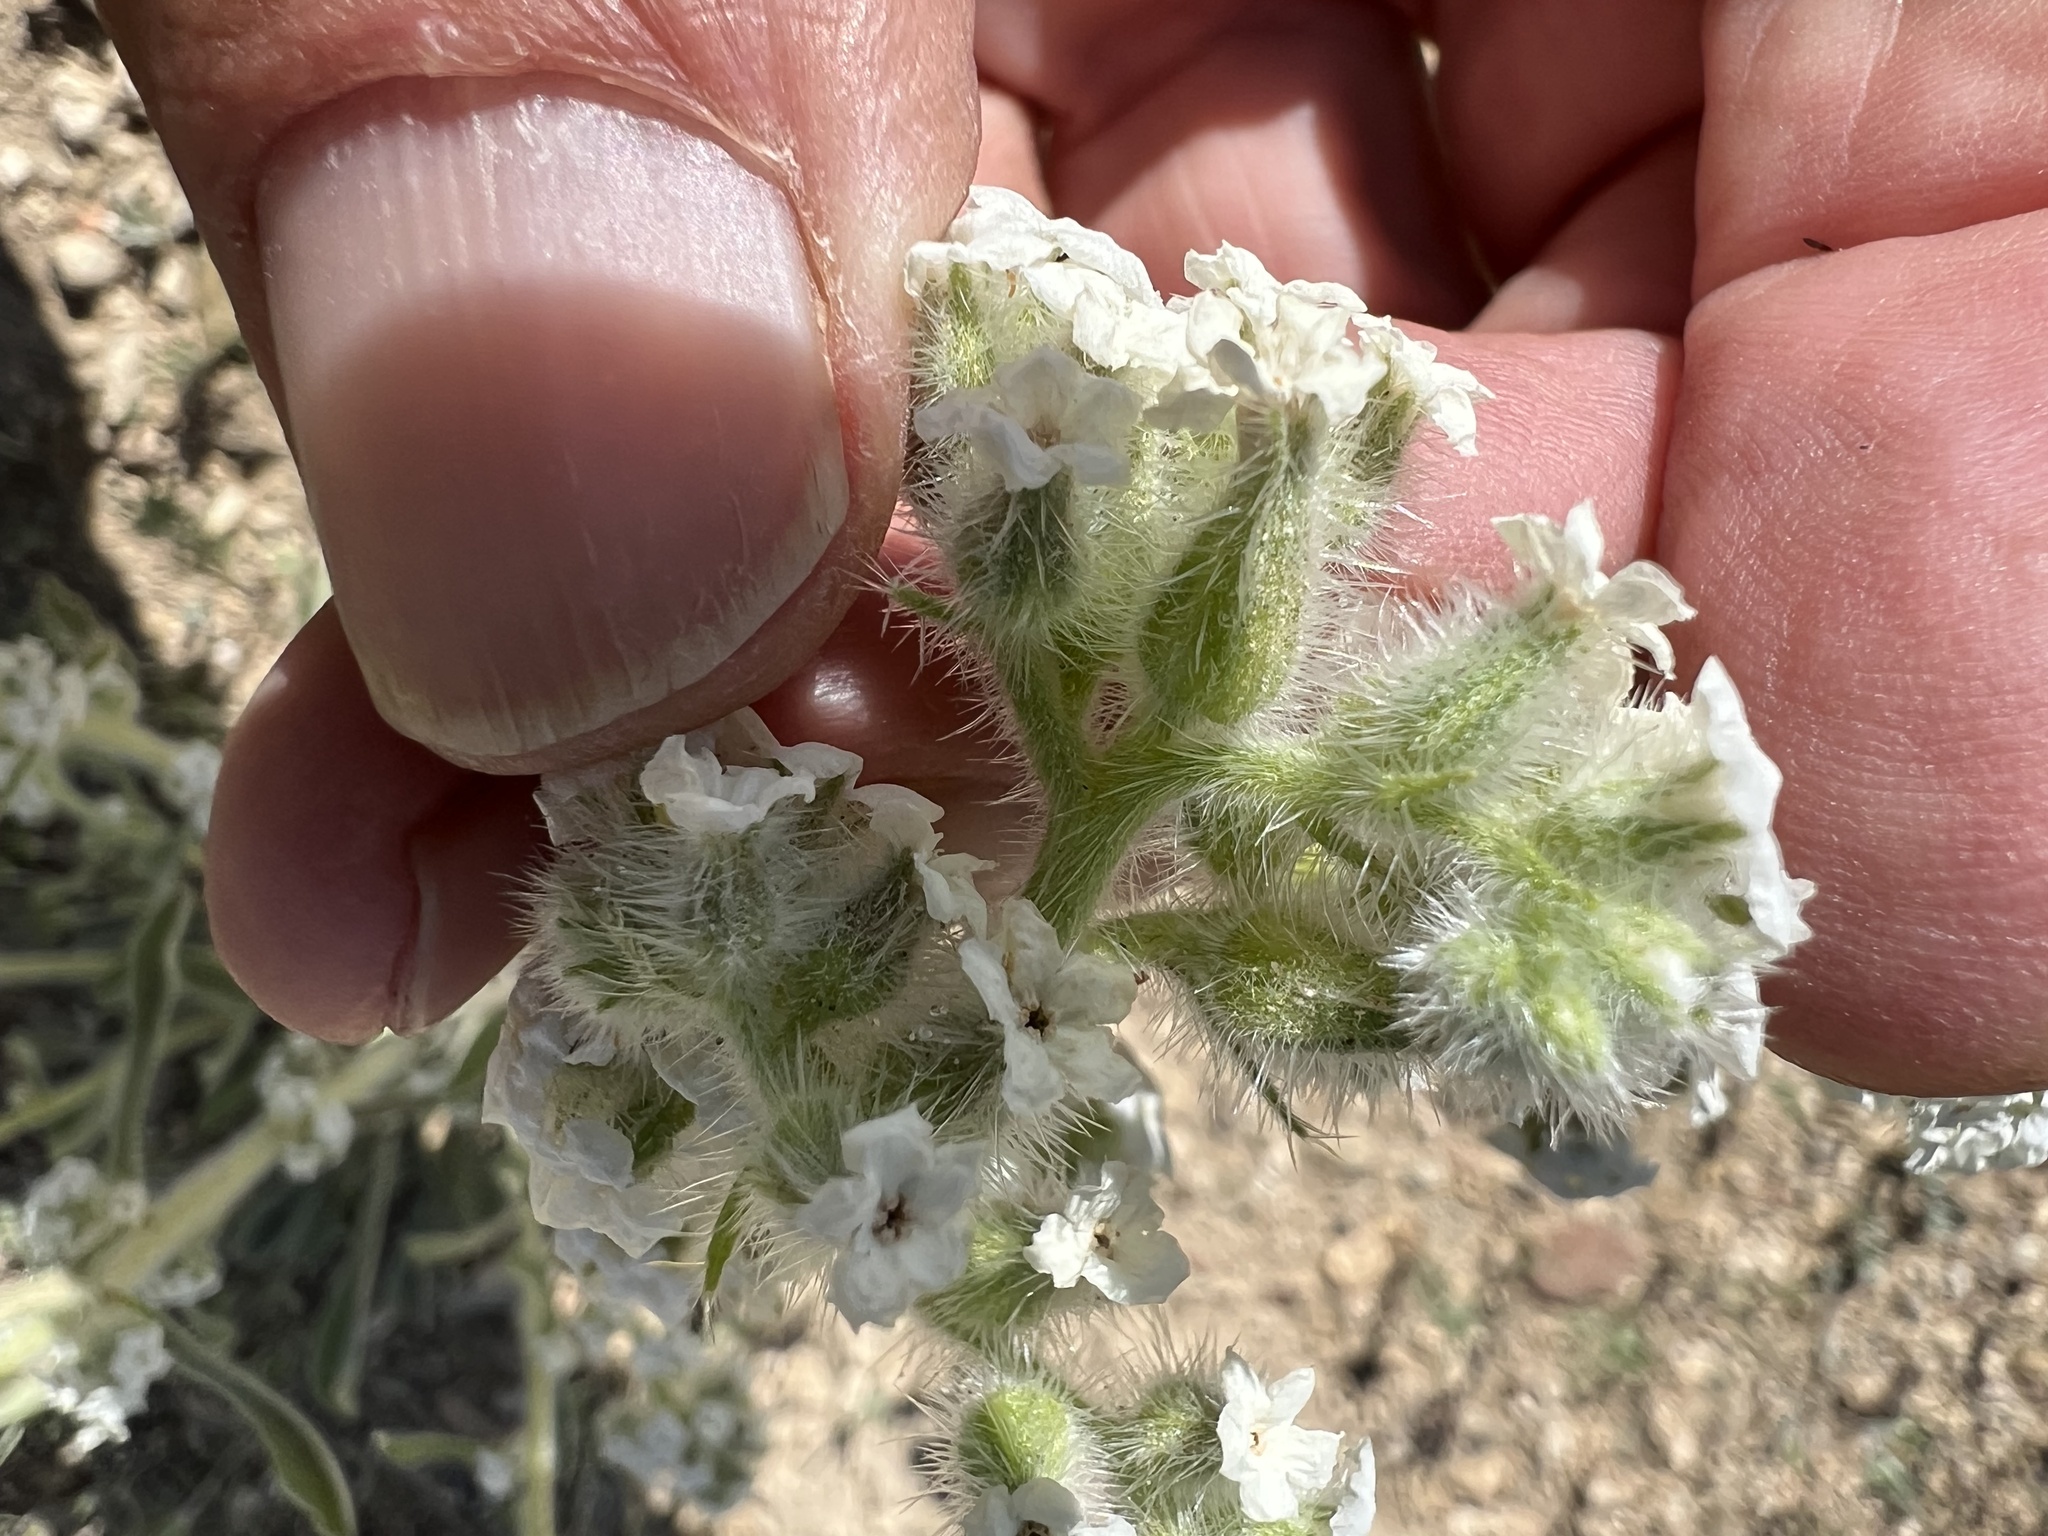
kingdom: Plantae
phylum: Tracheophyta
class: Magnoliopsida
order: Boraginales
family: Boraginaceae
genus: Oreocarya
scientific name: Oreocarya hoffmannii
